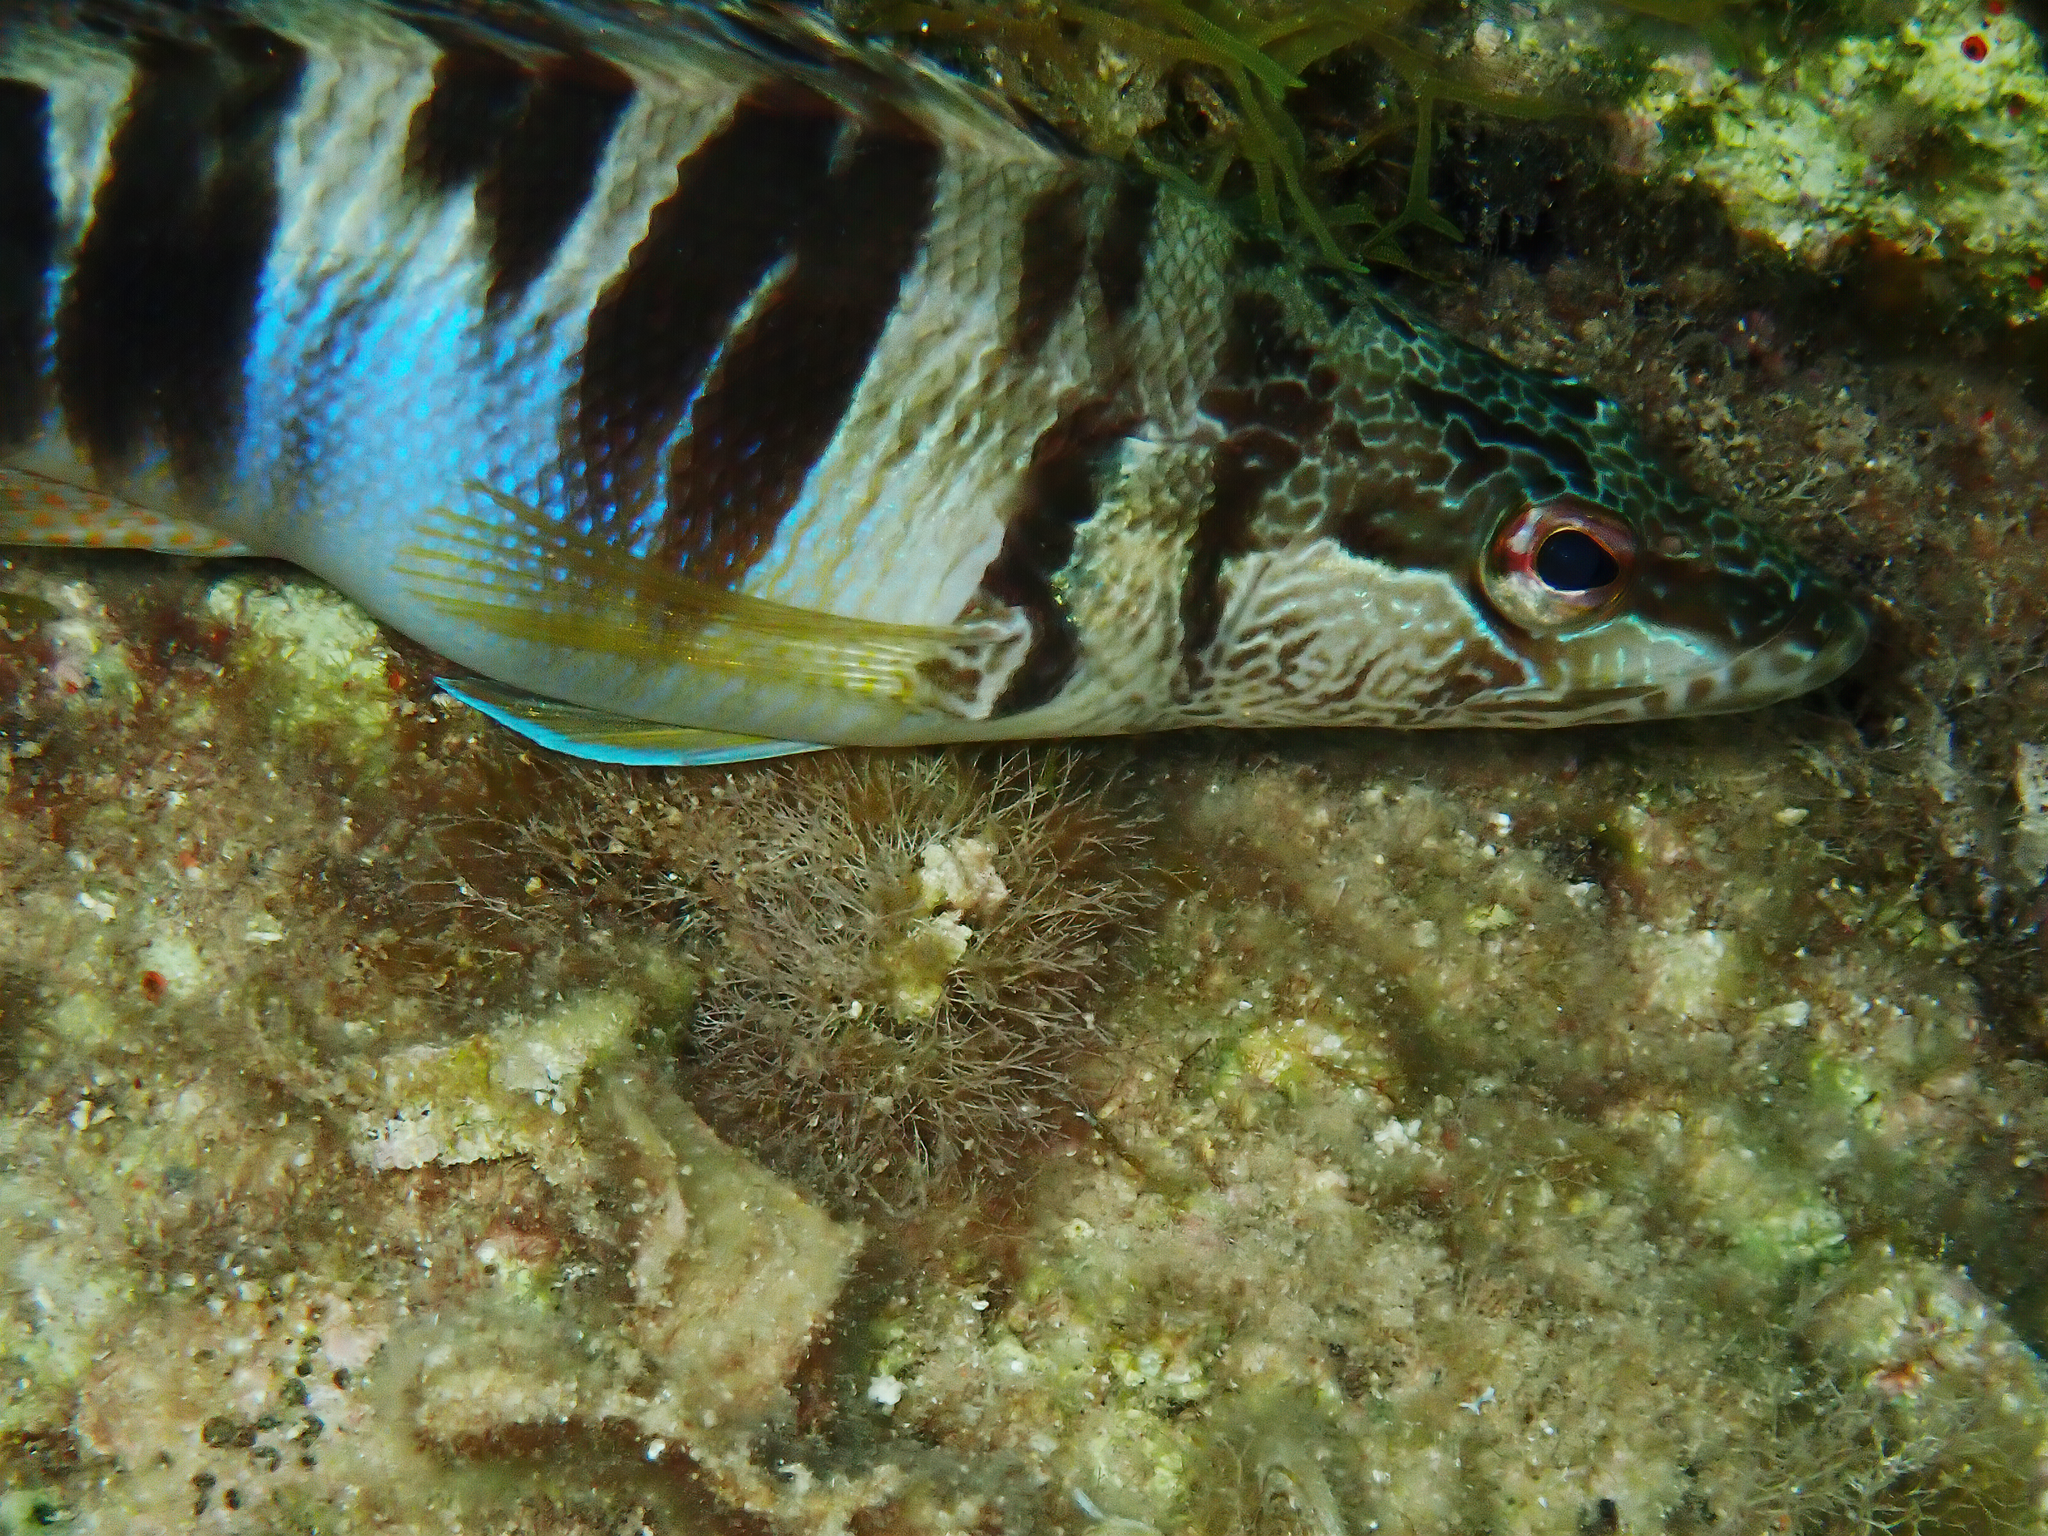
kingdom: Animalia
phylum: Chordata
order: Perciformes
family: Serranidae
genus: Serranus
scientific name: Serranus scriba
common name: Painted comber
